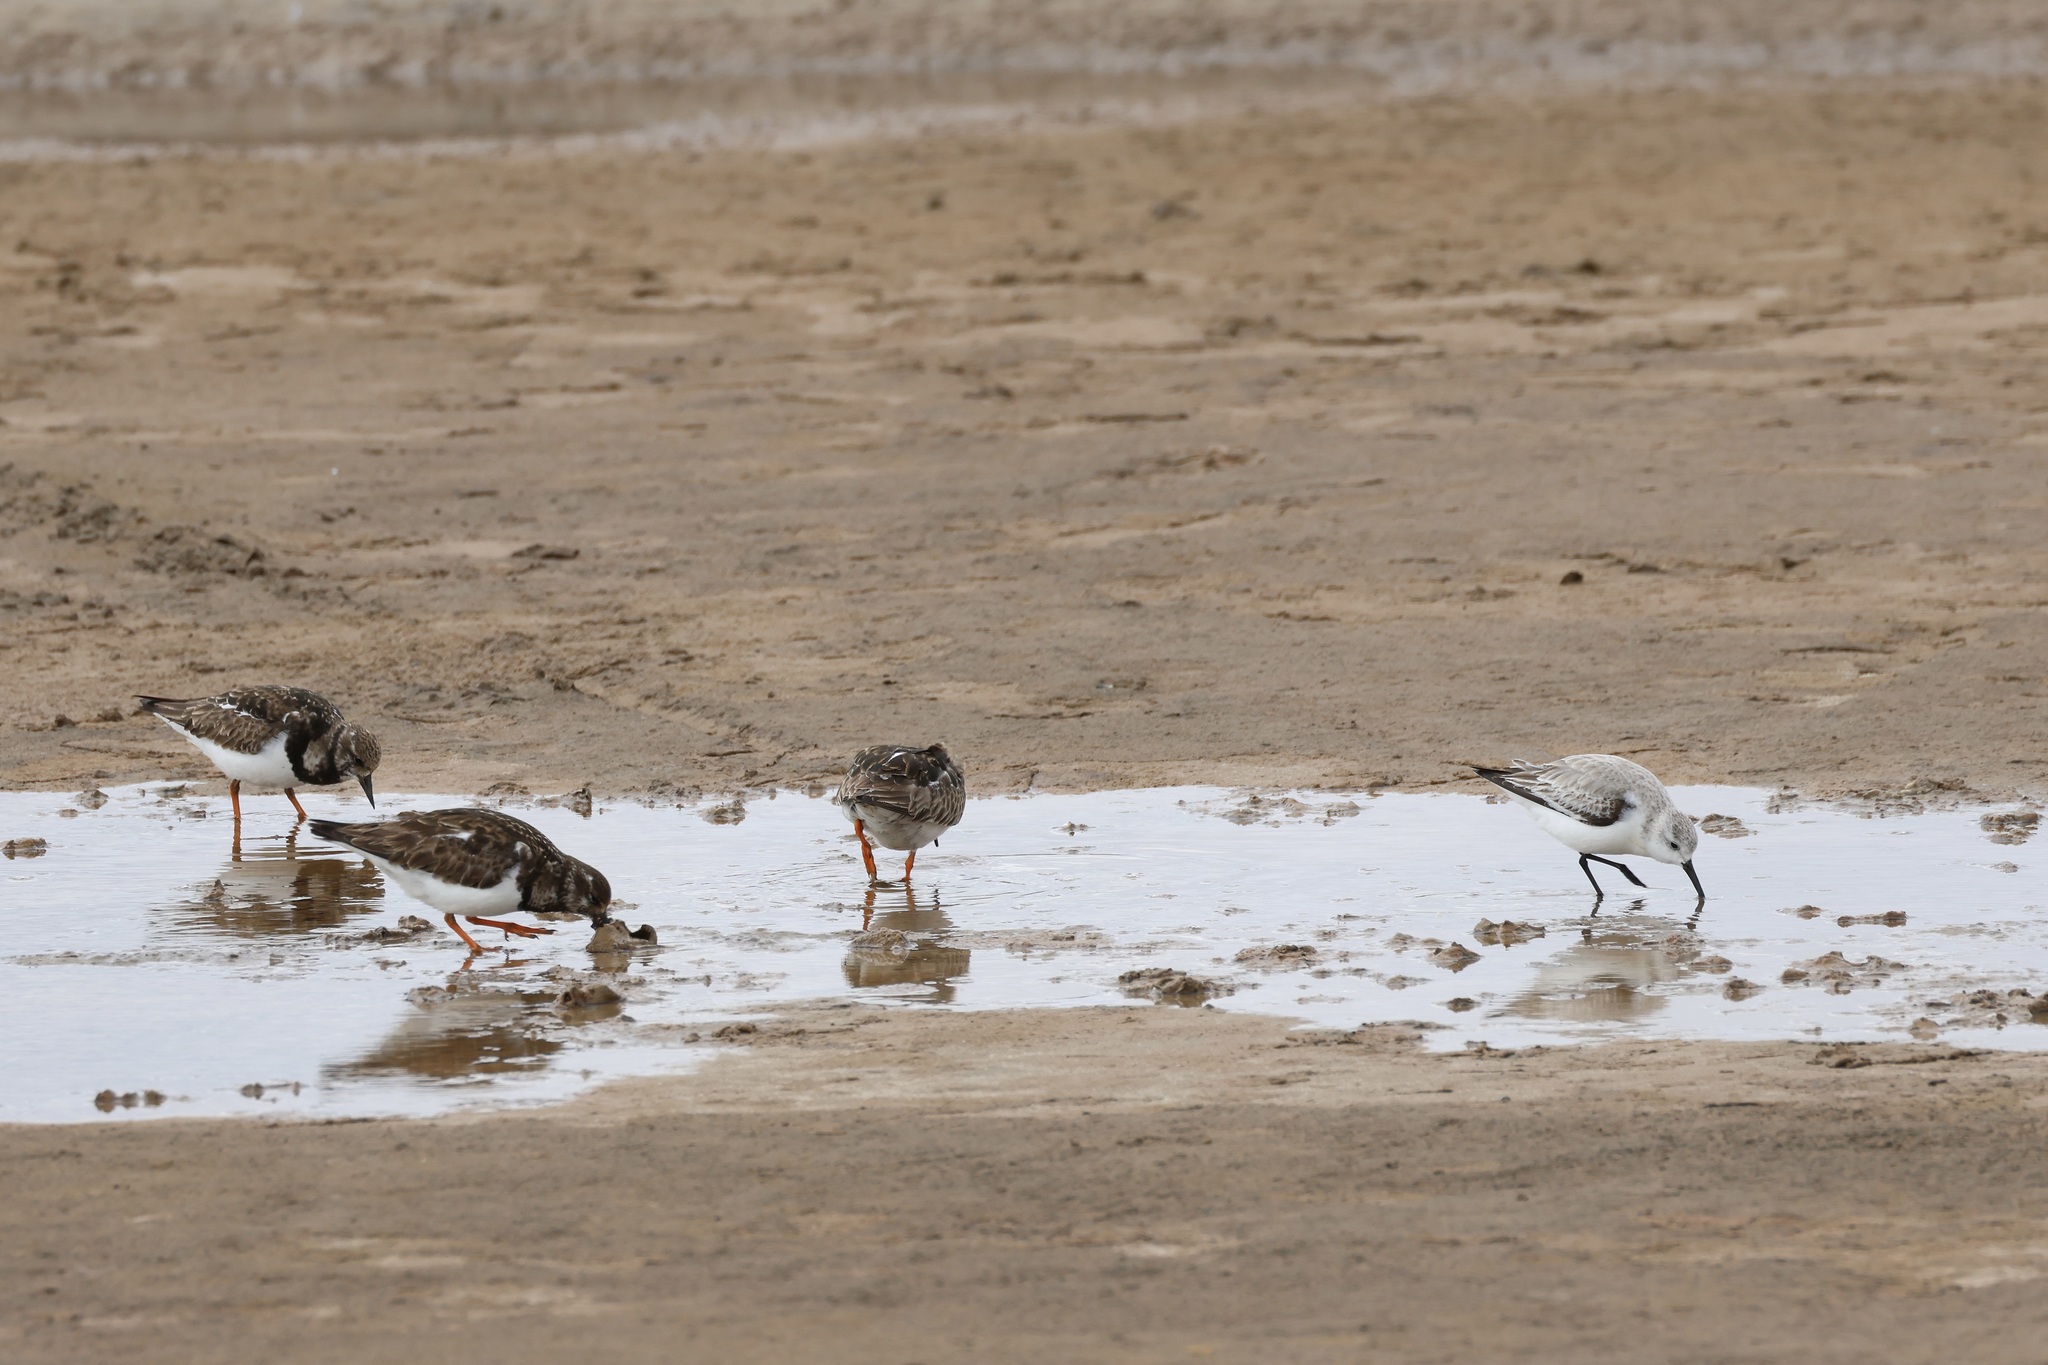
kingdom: Animalia
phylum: Chordata
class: Aves
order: Charadriiformes
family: Scolopacidae
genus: Arenaria
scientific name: Arenaria interpres
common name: Ruddy turnstone
